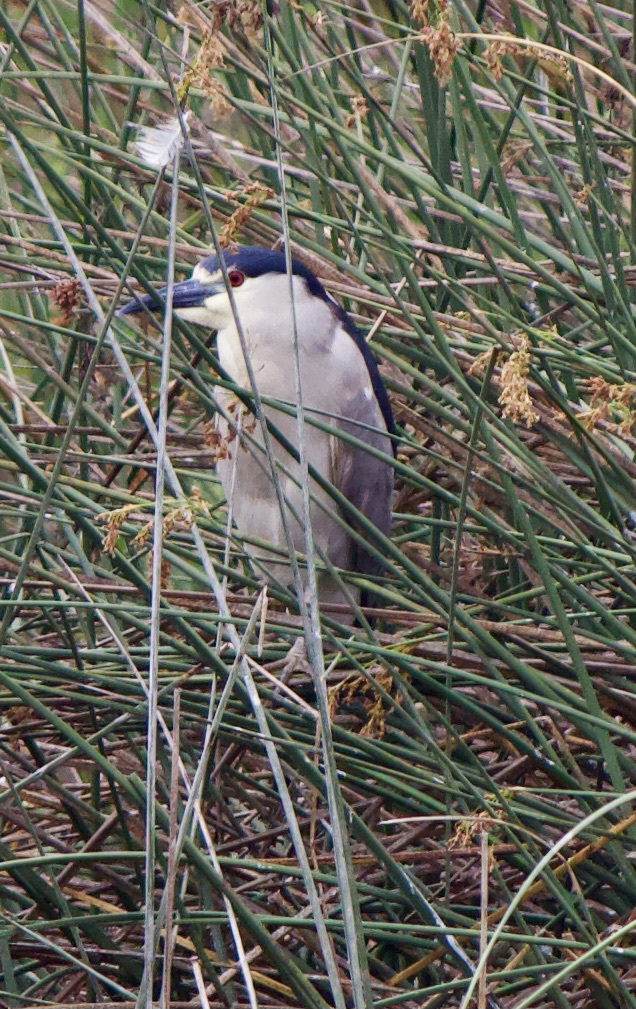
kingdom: Animalia
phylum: Chordata
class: Aves
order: Pelecaniformes
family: Ardeidae
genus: Nycticorax
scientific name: Nycticorax nycticorax
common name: Black-crowned night heron
